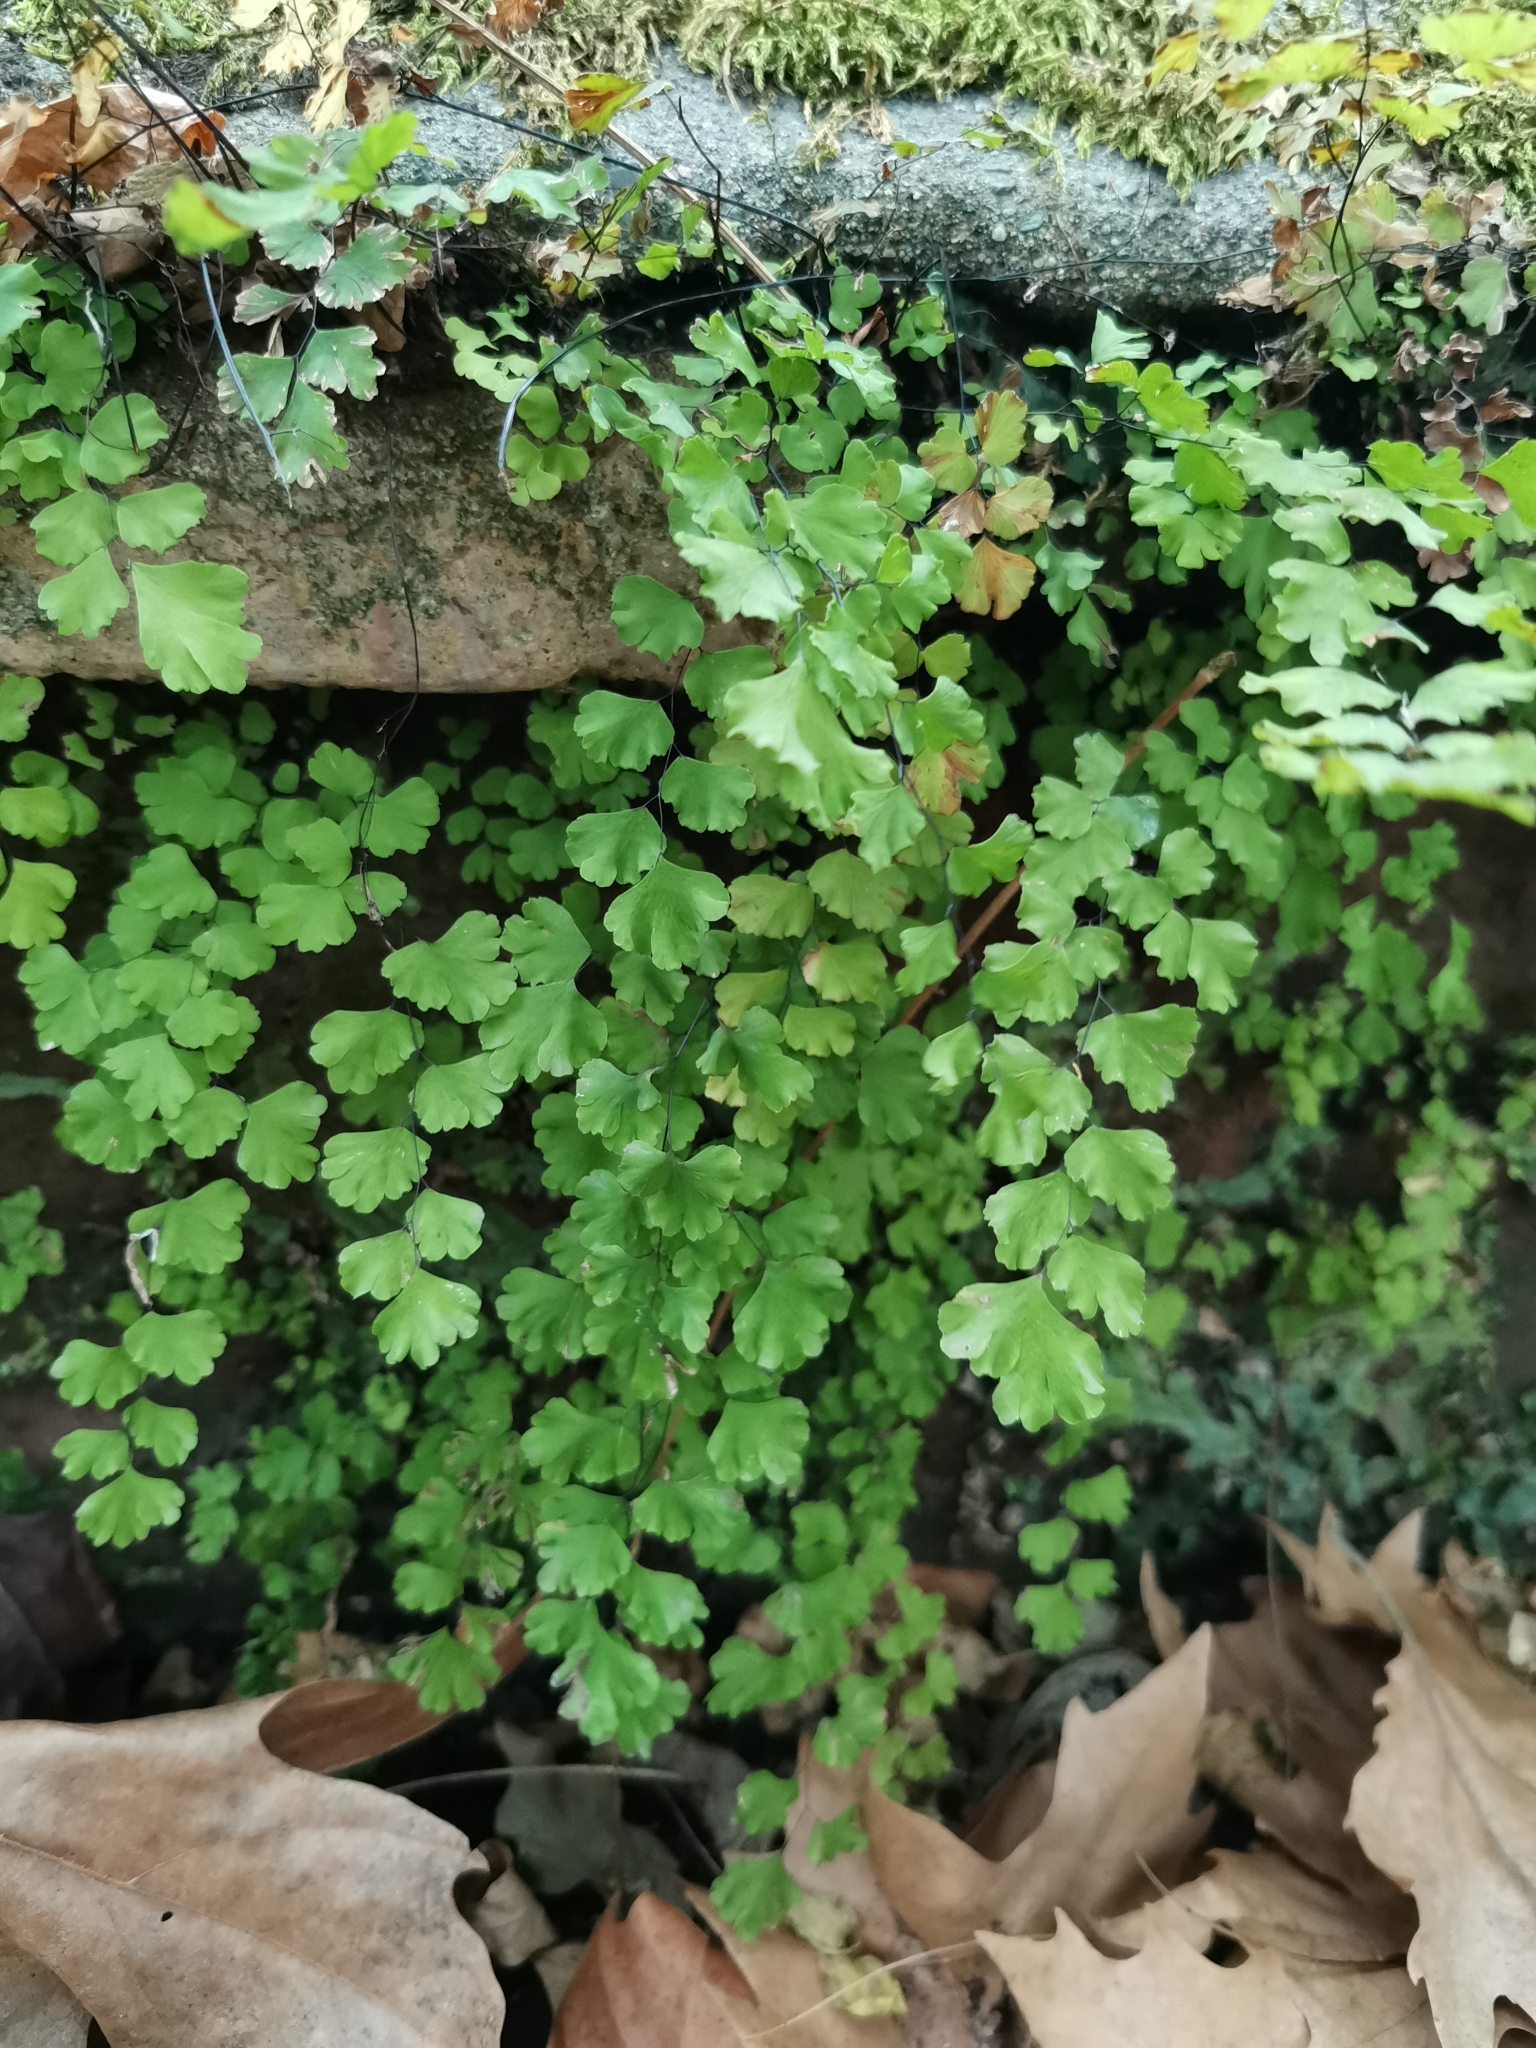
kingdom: Plantae
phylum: Tracheophyta
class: Polypodiopsida
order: Polypodiales
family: Pteridaceae
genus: Adiantum
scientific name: Adiantum capillus-veneris
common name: Maidenhair fern
